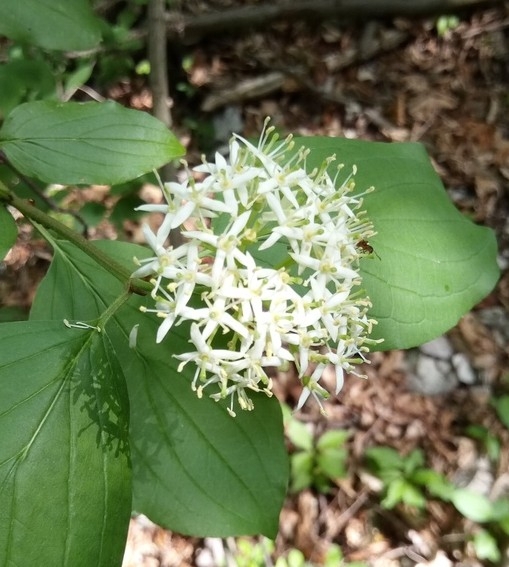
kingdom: Plantae
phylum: Tracheophyta
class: Magnoliopsida
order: Cornales
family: Cornaceae
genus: Cornus
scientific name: Cornus sanguinea
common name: Dogwood
